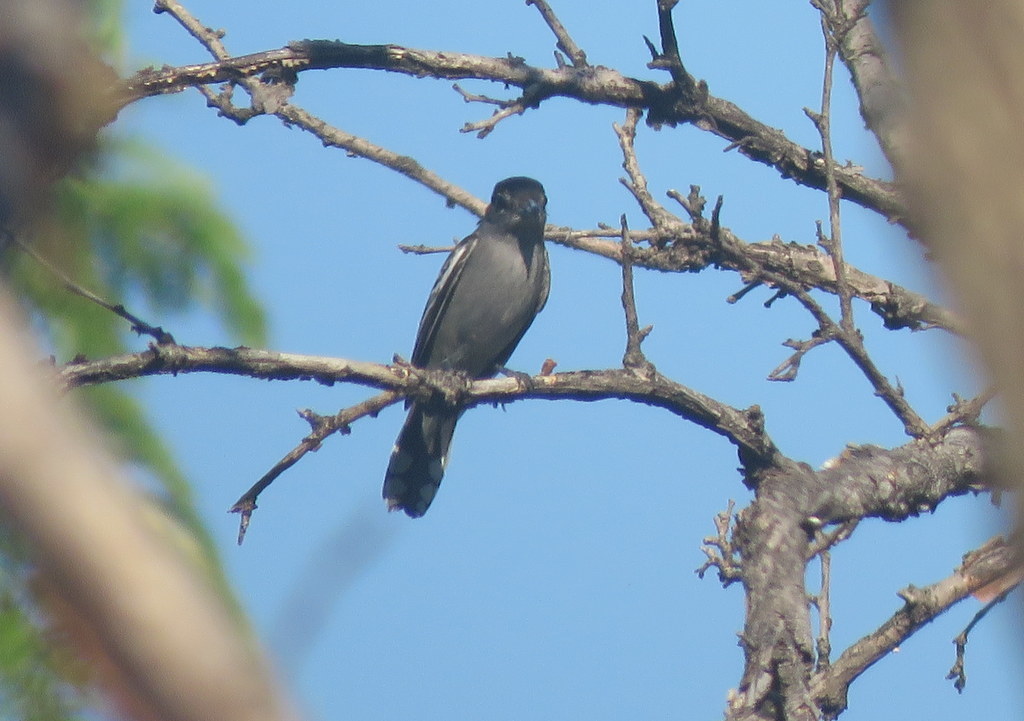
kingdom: Animalia
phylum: Chordata
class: Aves
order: Passeriformes
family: Cotingidae
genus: Pachyramphus
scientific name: Pachyramphus polychopterus
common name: White-winged becard
